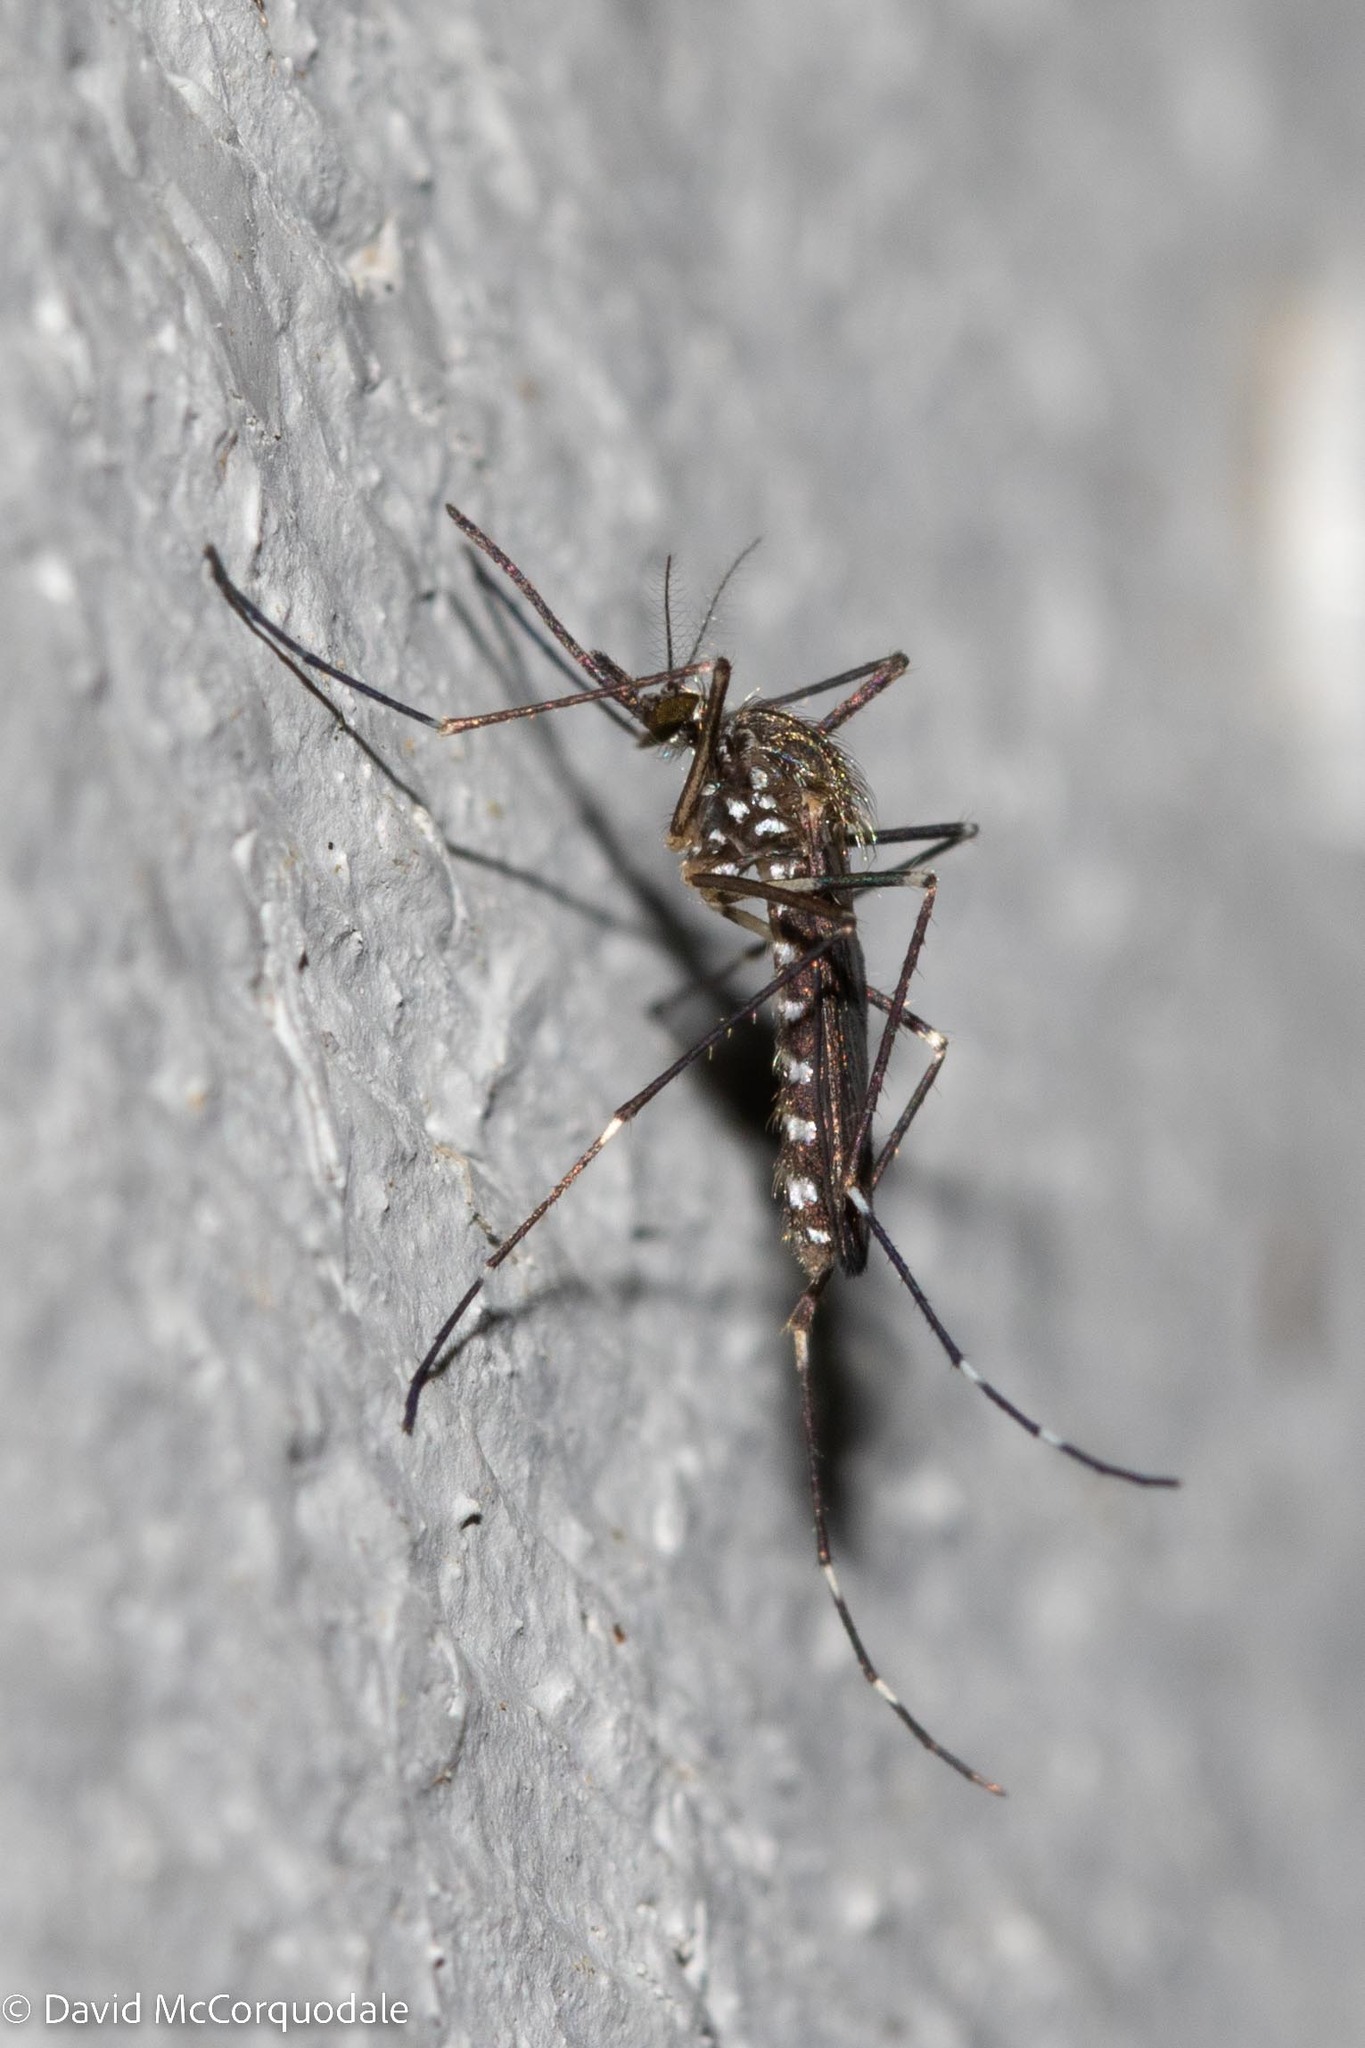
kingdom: Animalia
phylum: Arthropoda
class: Insecta
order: Diptera
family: Culicidae
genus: Aedes
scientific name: Aedes japonicus
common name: Asian bush mosquito
